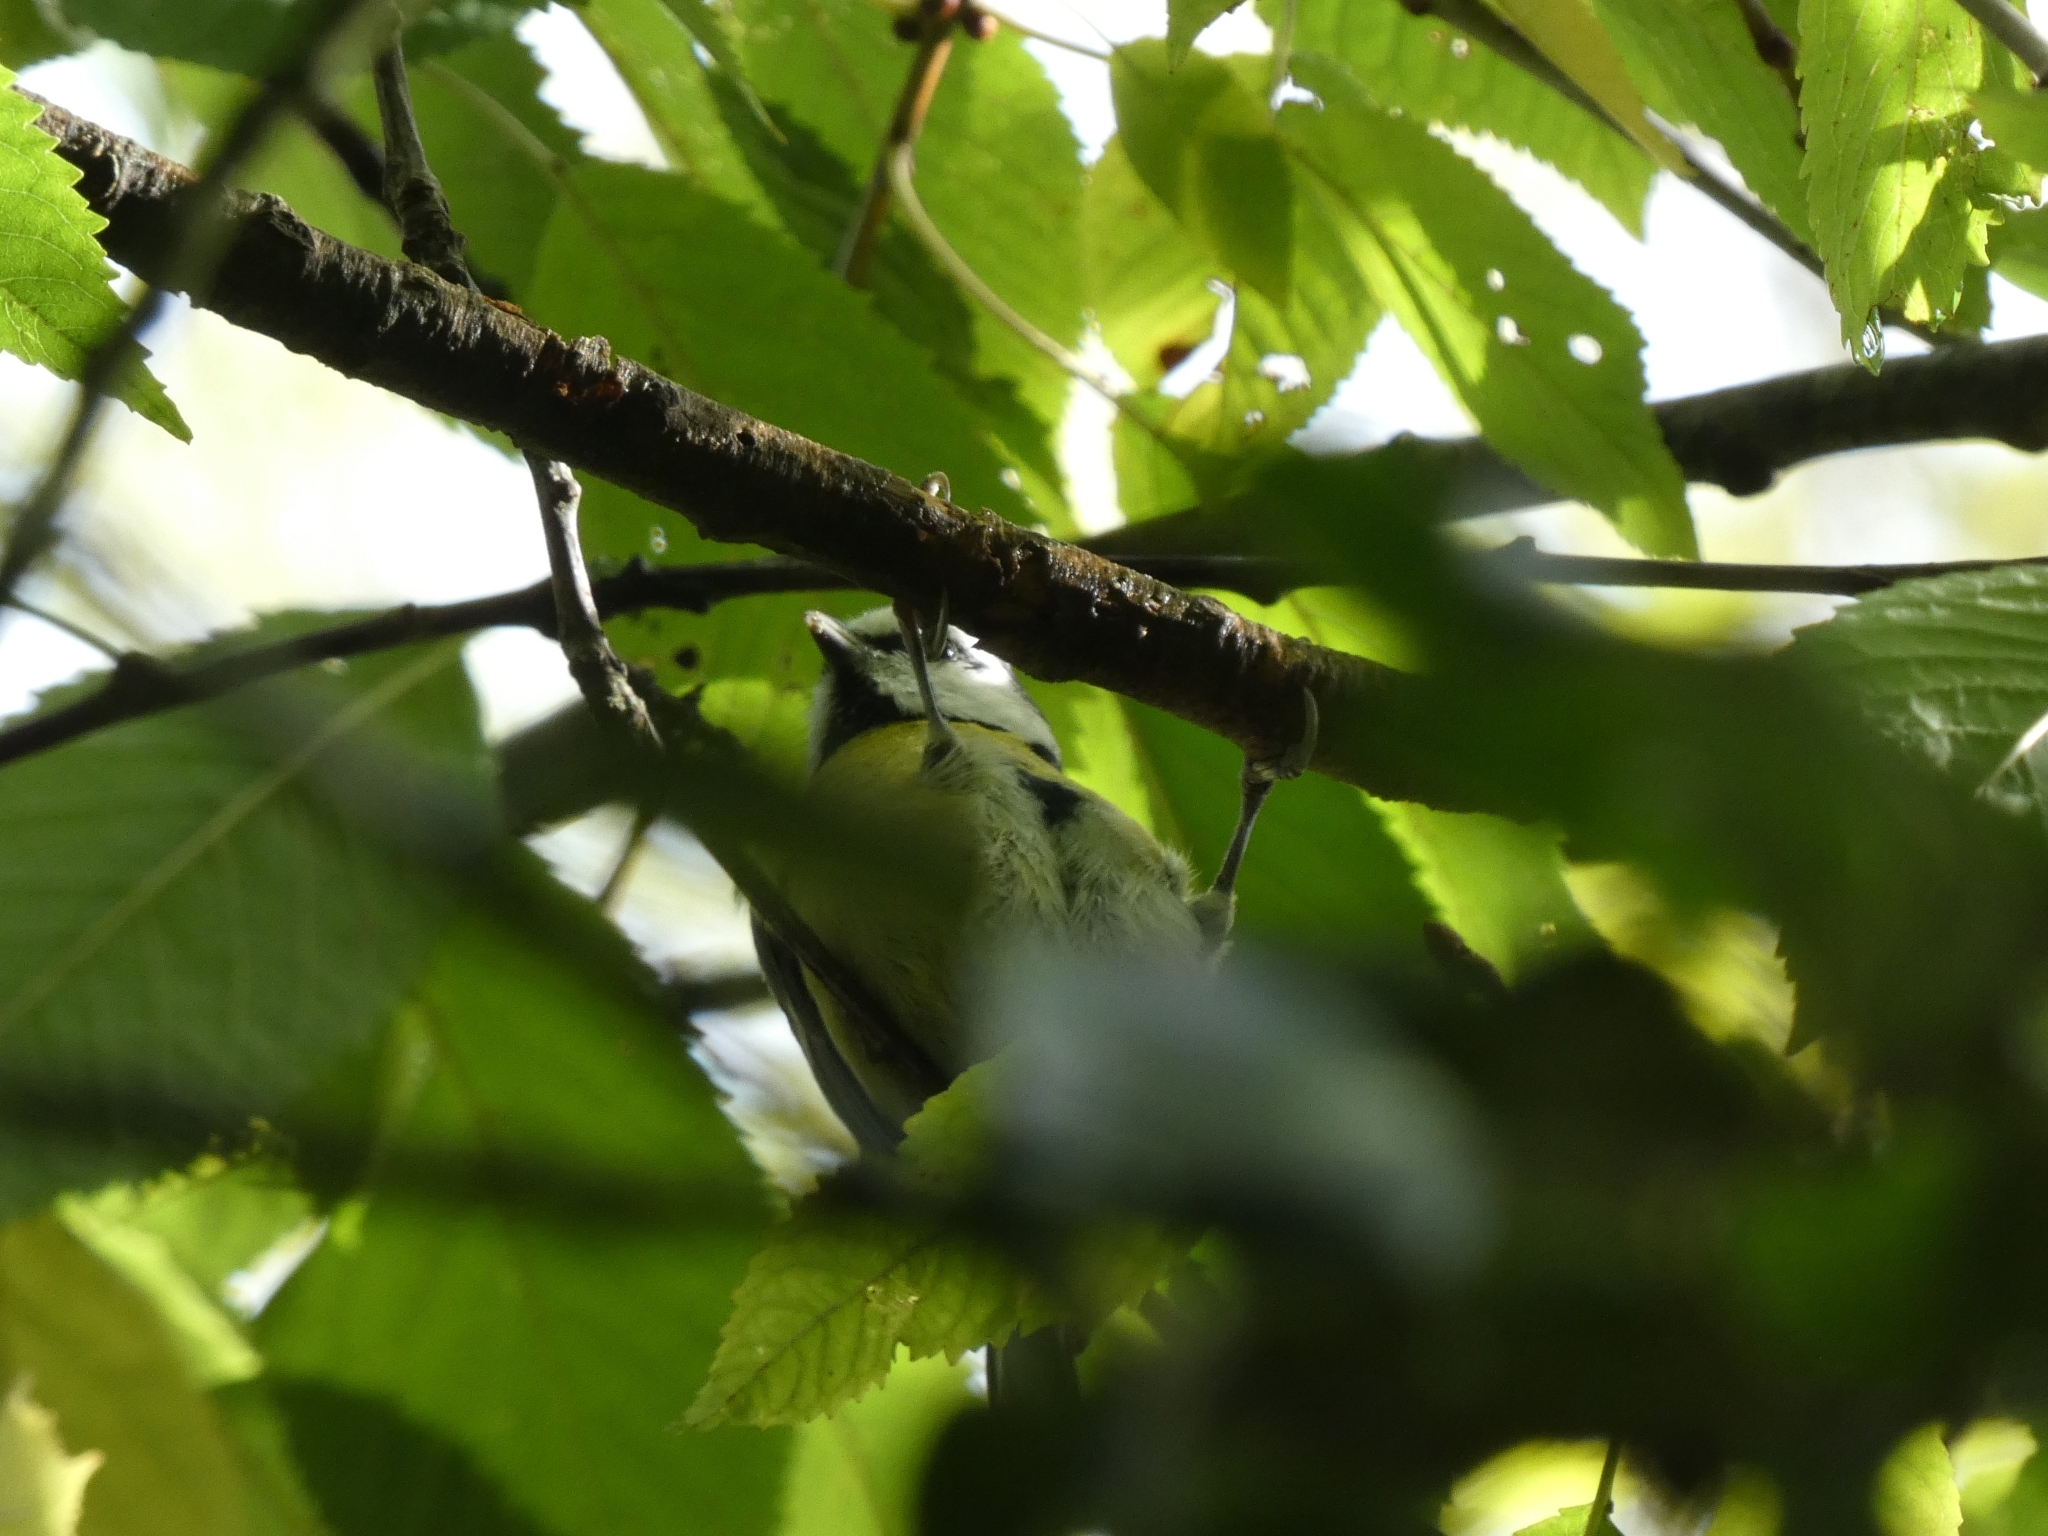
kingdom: Animalia
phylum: Chordata
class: Aves
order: Passeriformes
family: Paridae
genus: Cyanistes
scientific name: Cyanistes caeruleus
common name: Eurasian blue tit
